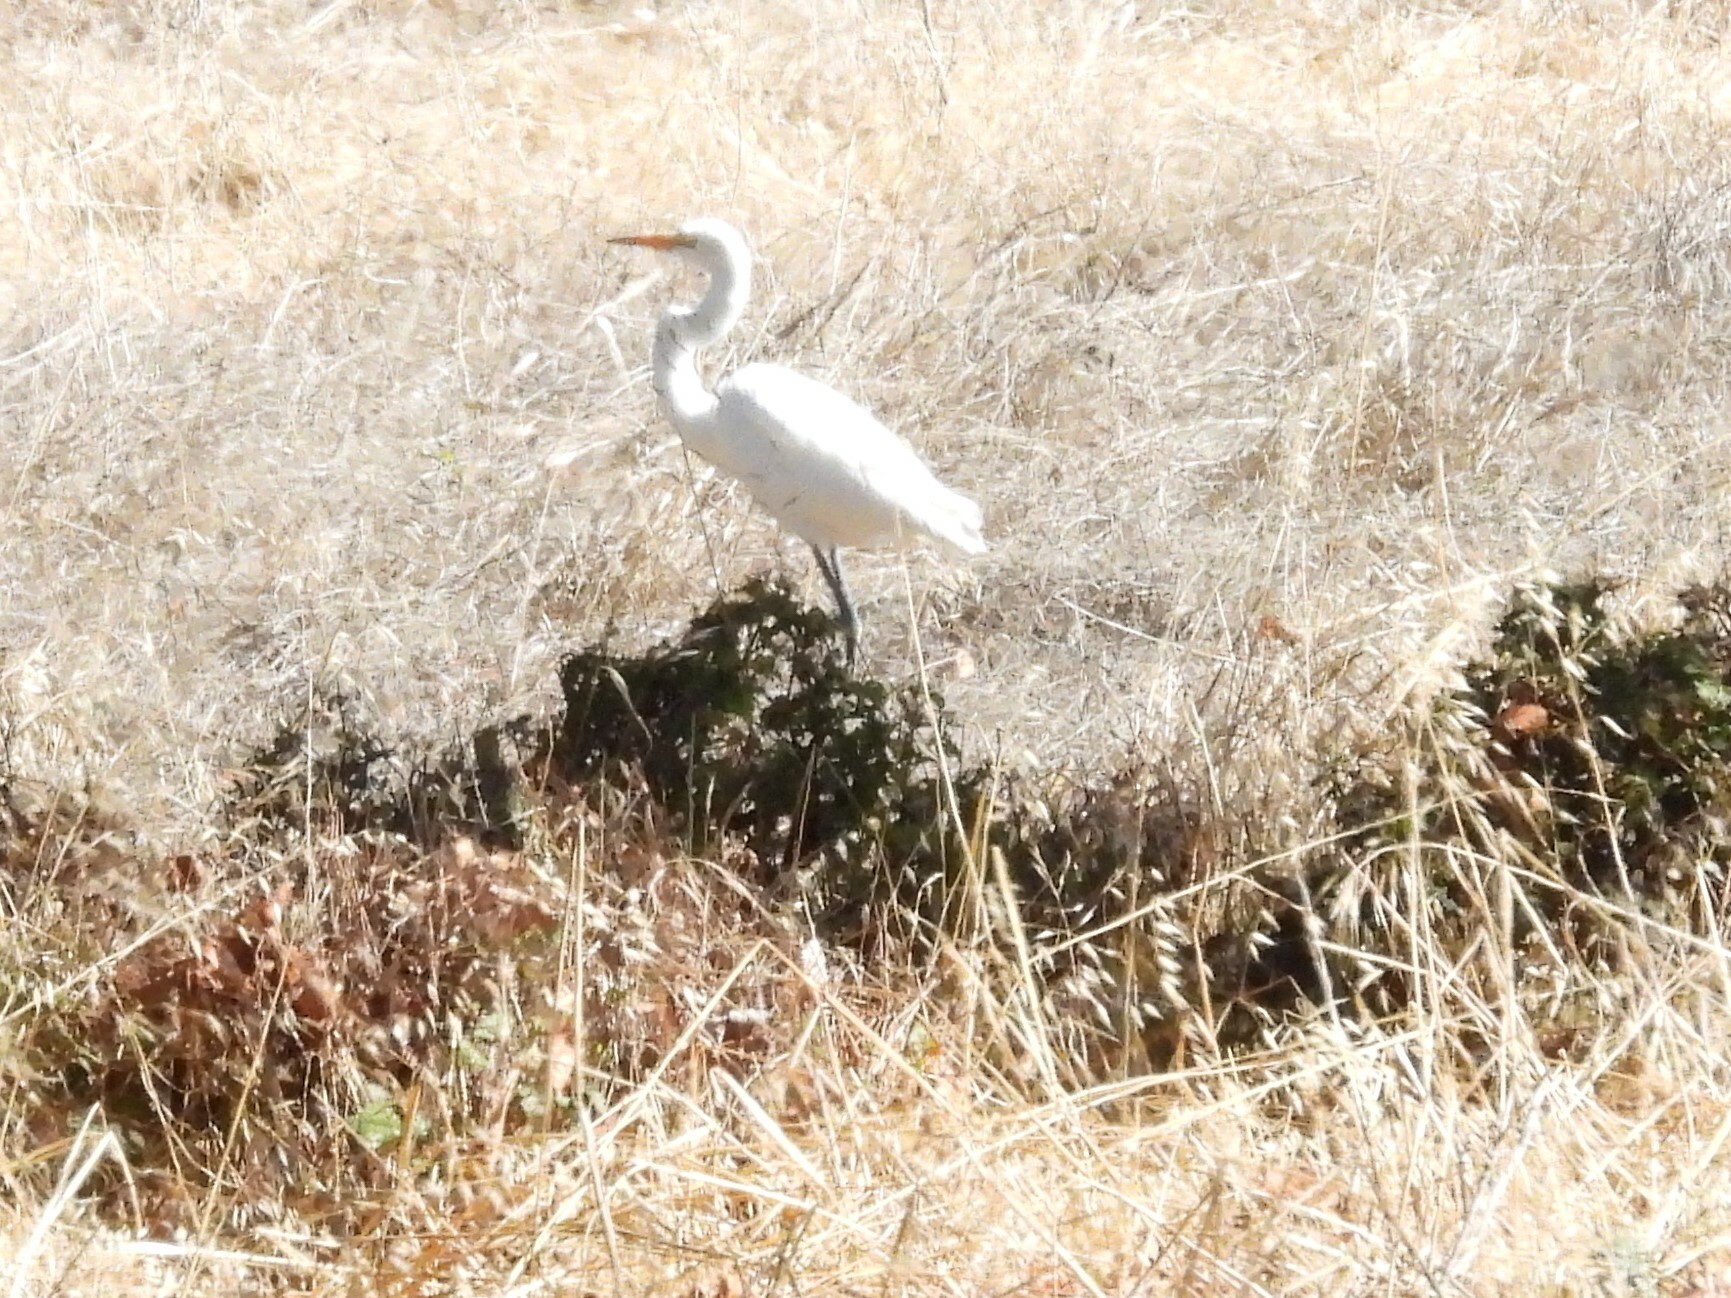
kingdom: Animalia
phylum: Chordata
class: Aves
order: Pelecaniformes
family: Ardeidae
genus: Ardea
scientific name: Ardea alba
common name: Great egret
